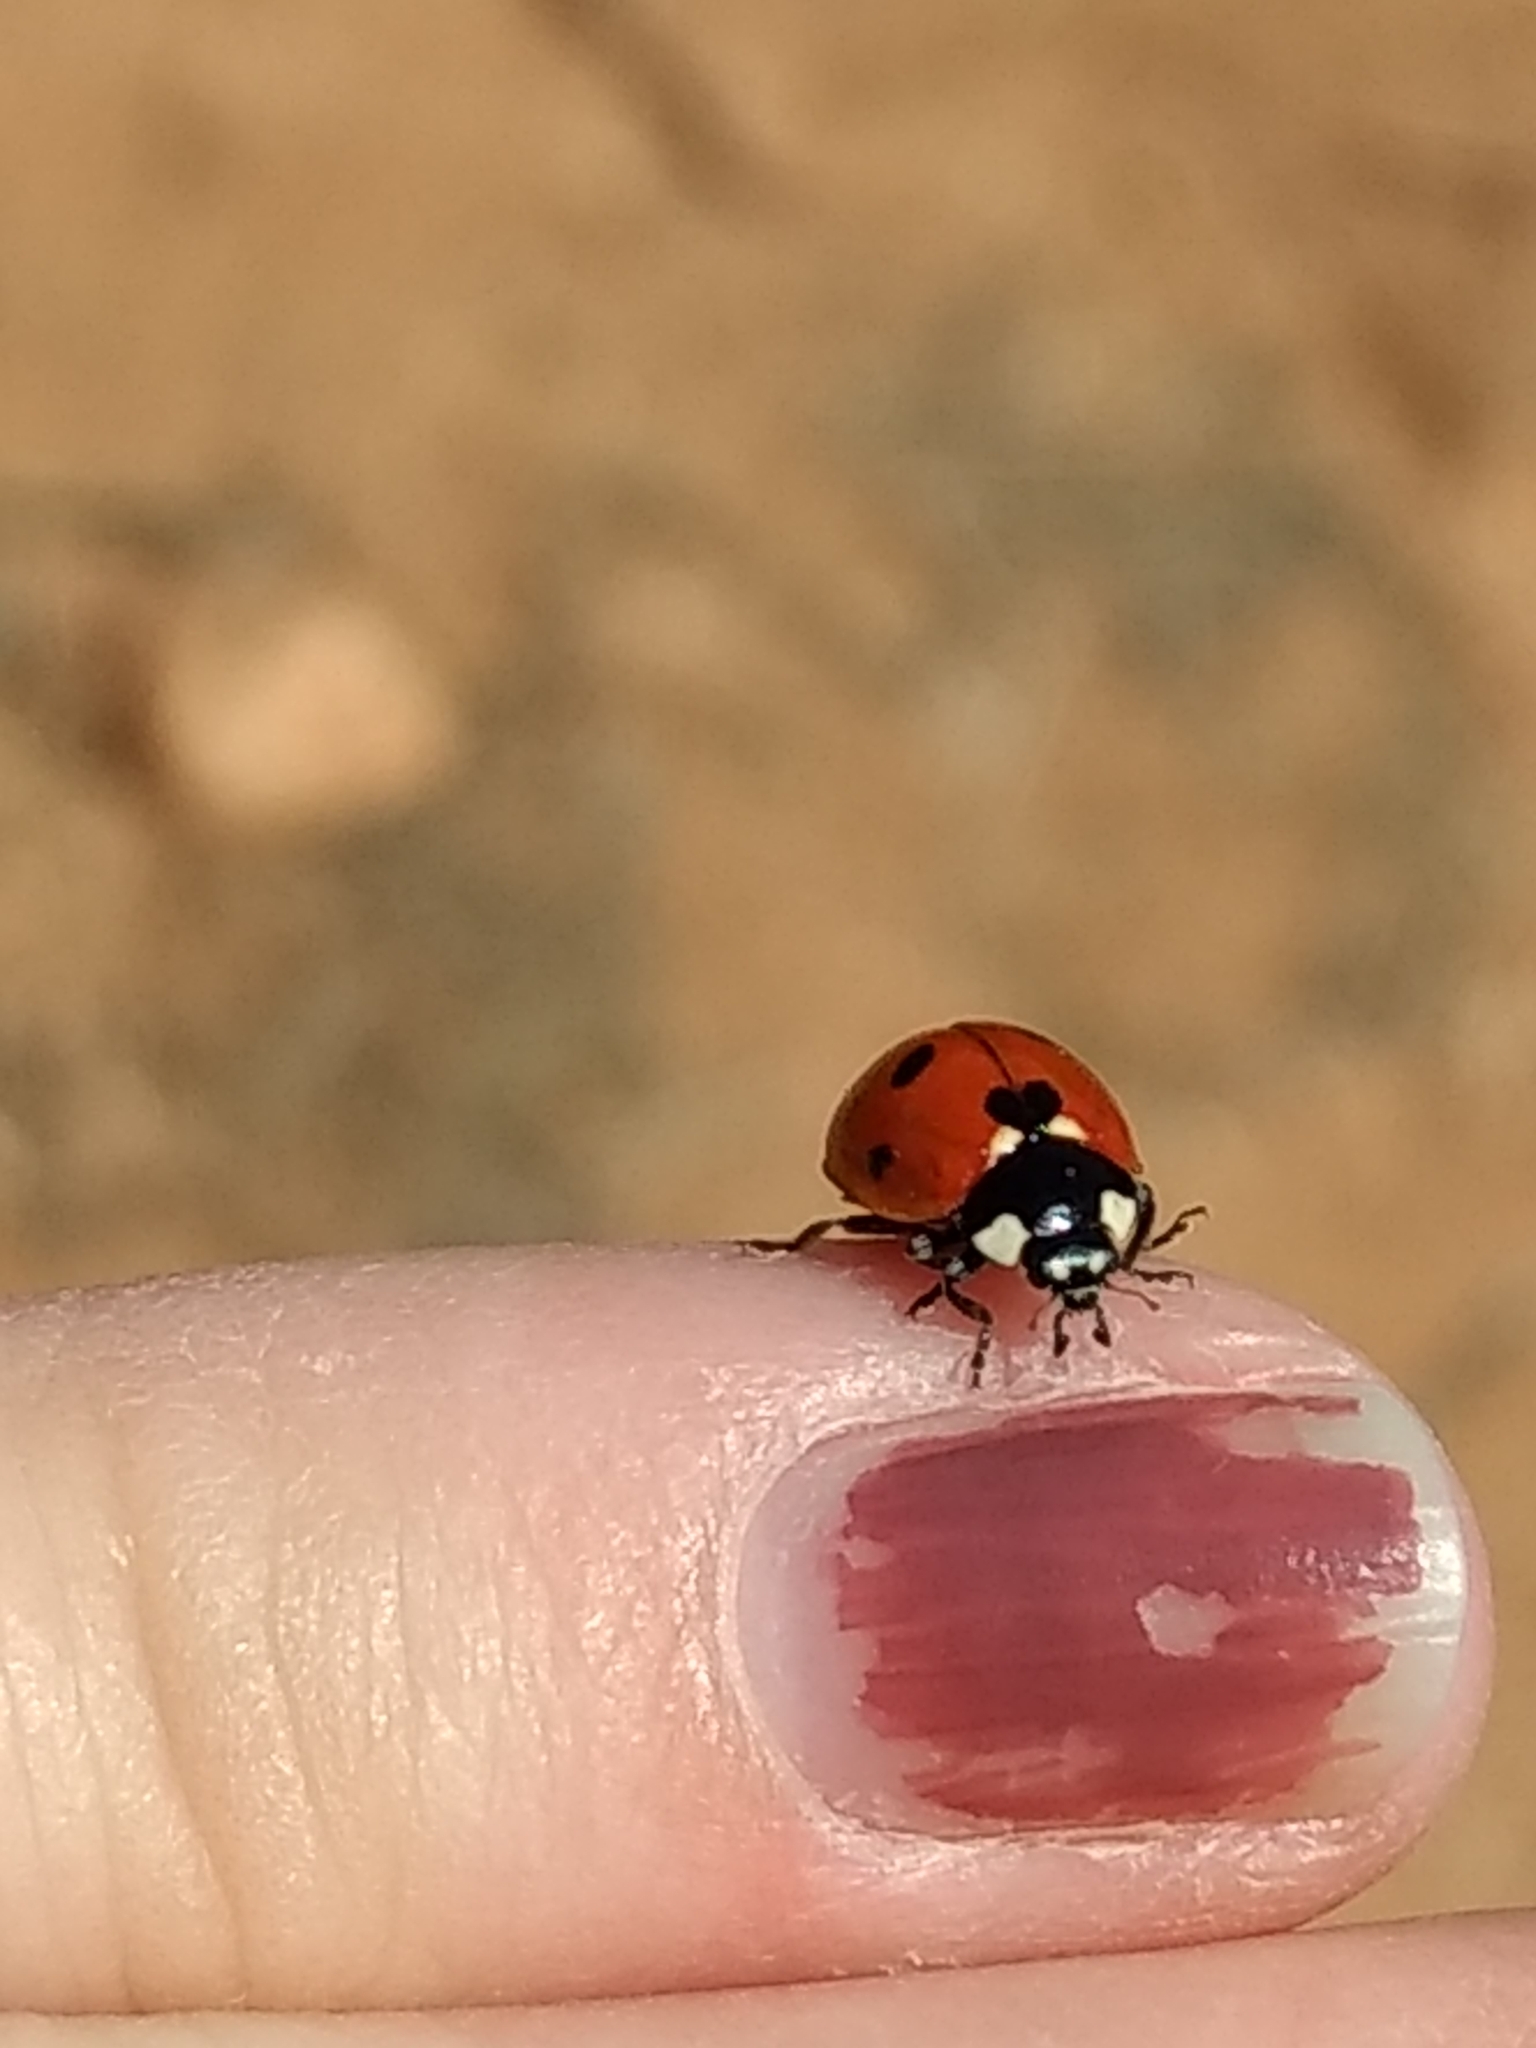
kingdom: Animalia
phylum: Arthropoda
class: Insecta
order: Coleoptera
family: Coccinellidae
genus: Coccinella
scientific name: Coccinella septempunctata
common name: Sevenspotted lady beetle
